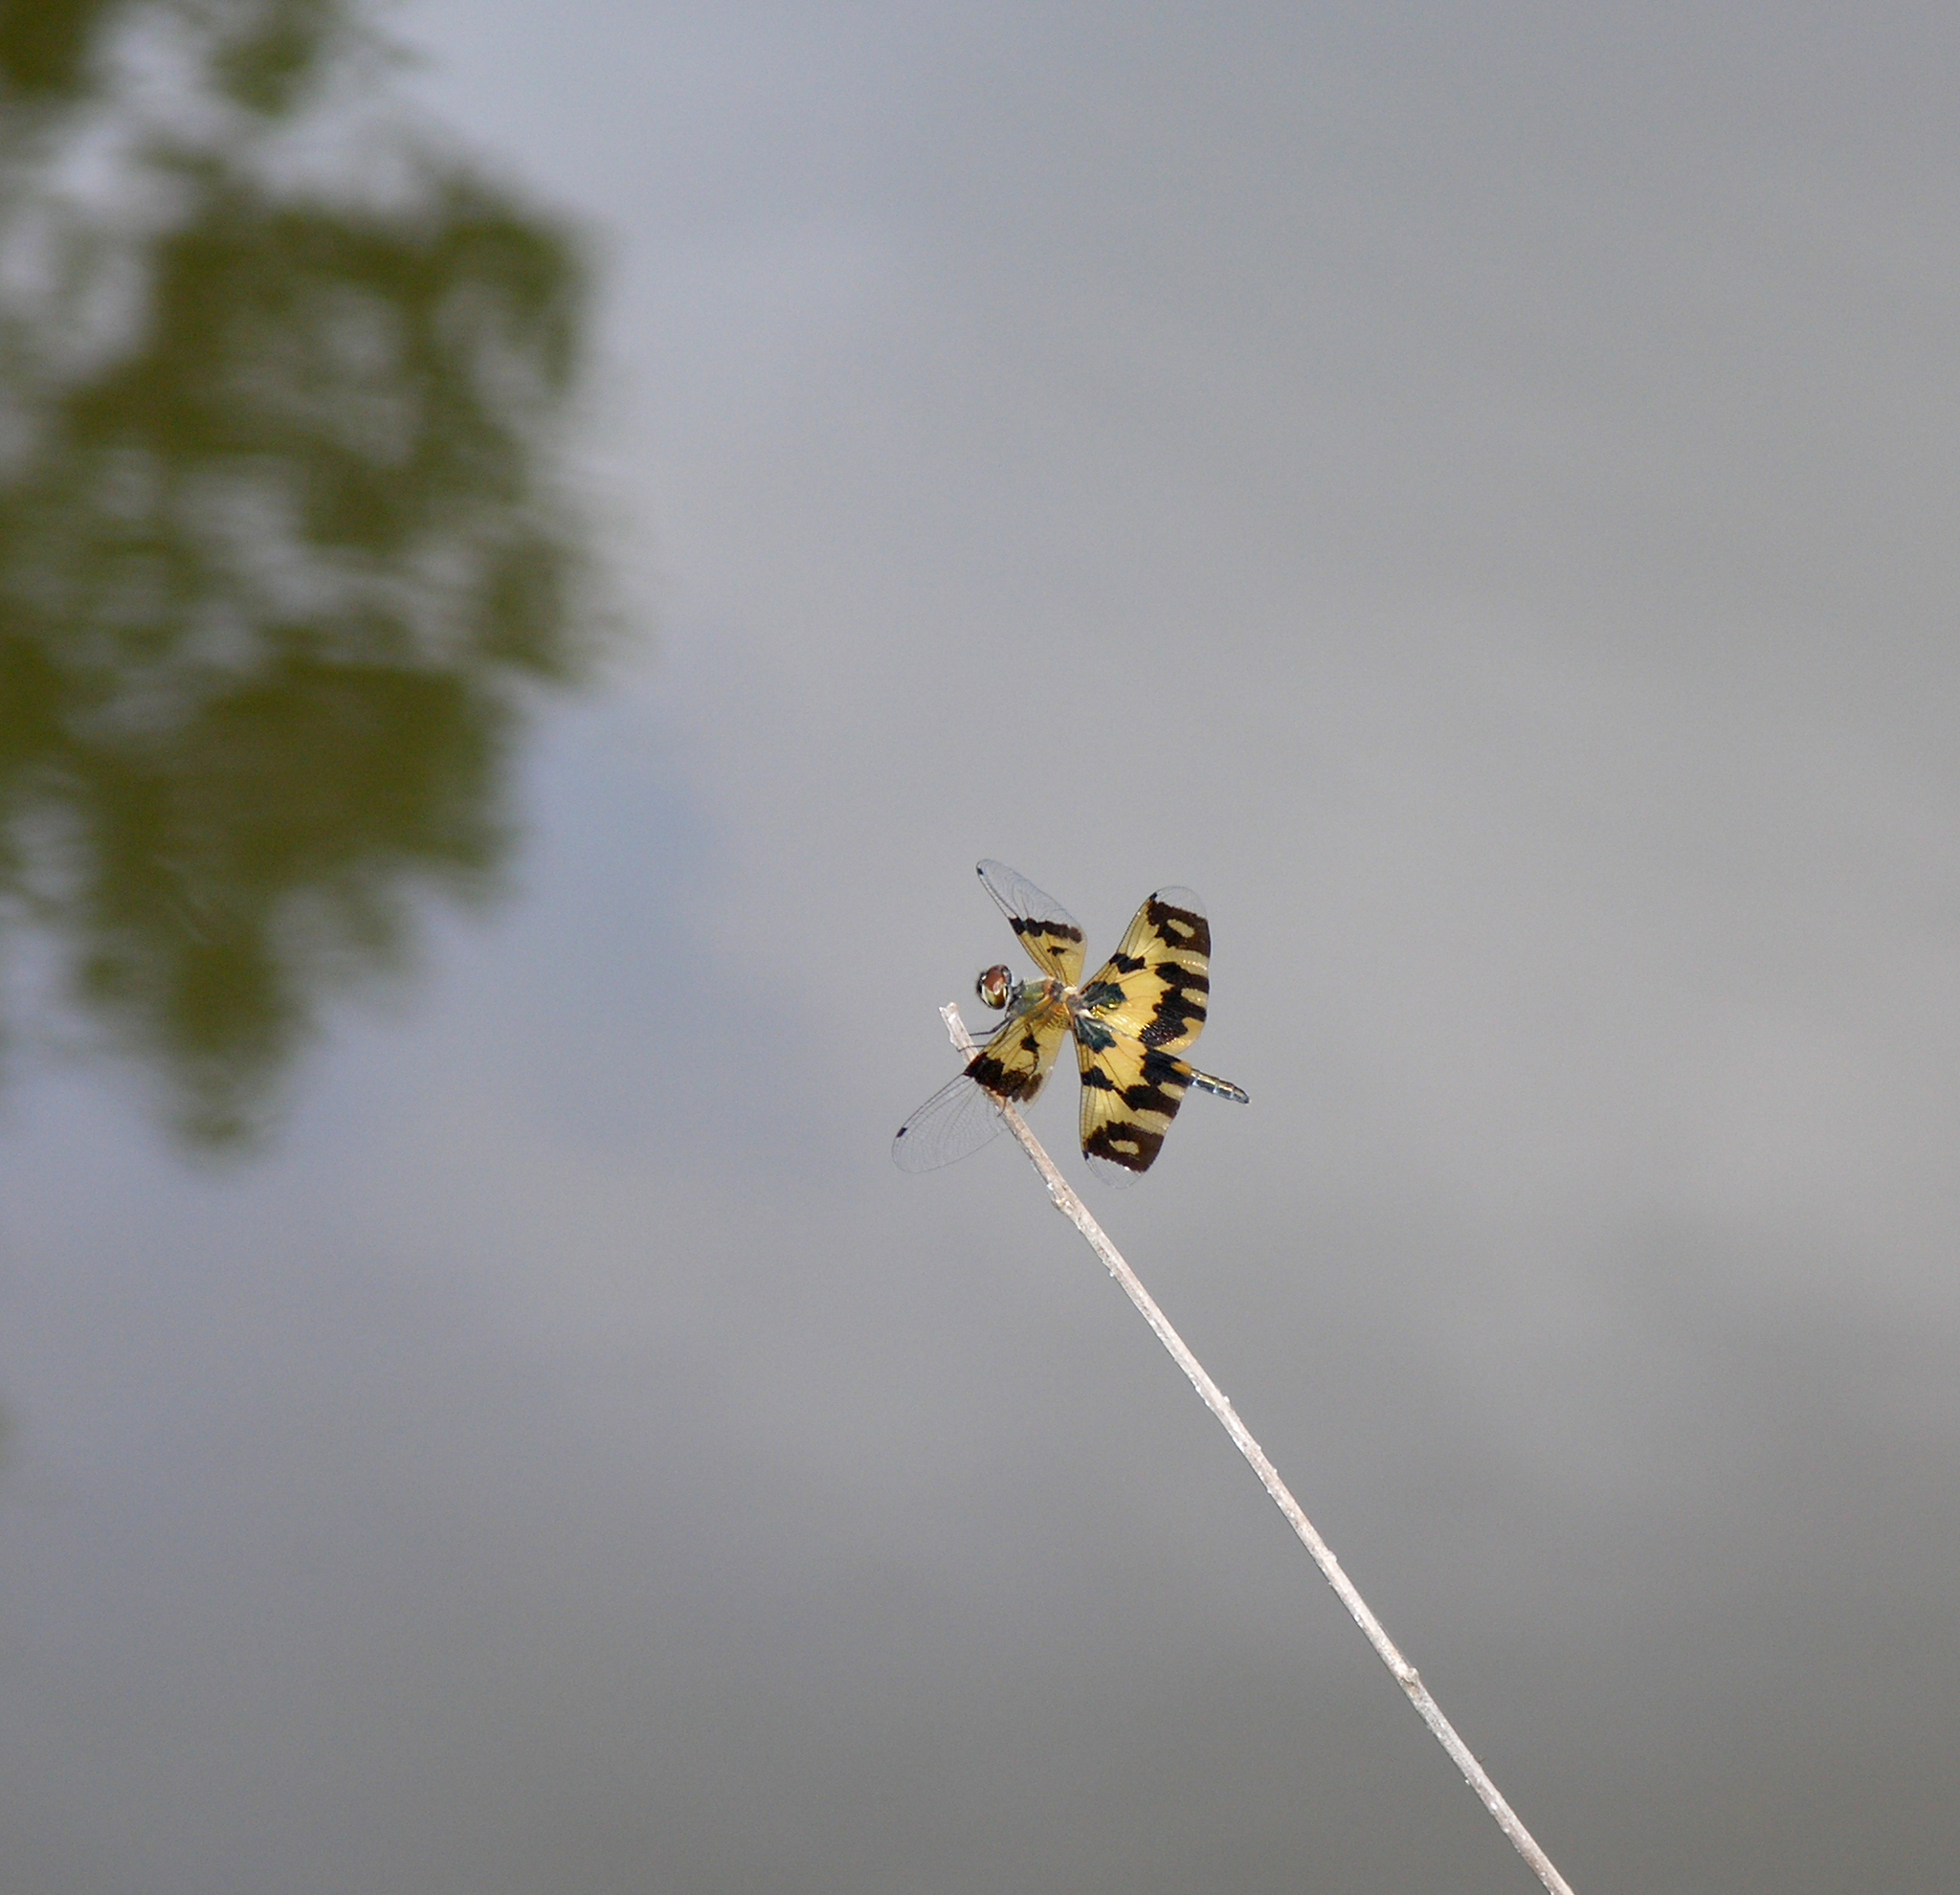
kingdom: Animalia
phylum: Arthropoda
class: Insecta
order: Odonata
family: Libellulidae
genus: Rhyothemis
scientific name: Rhyothemis variegata
